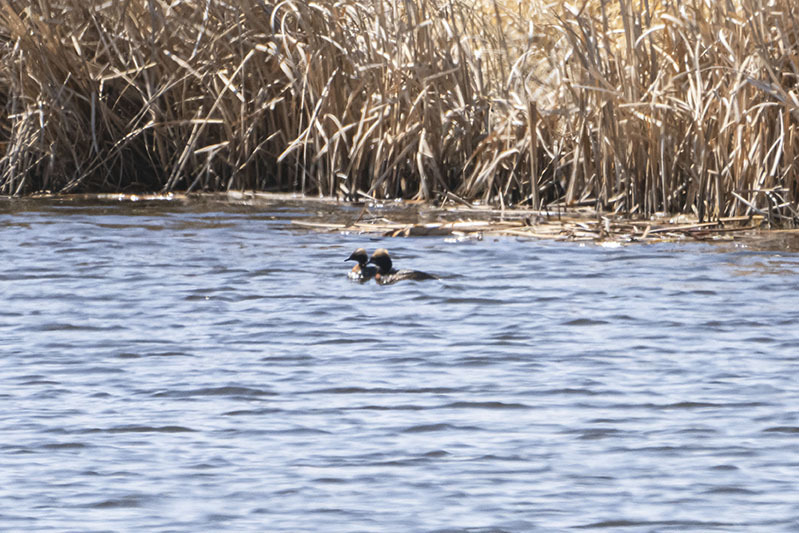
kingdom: Animalia
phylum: Chordata
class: Aves
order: Podicipediformes
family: Podicipedidae
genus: Podiceps
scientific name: Podiceps nigricollis
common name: Black-necked grebe
